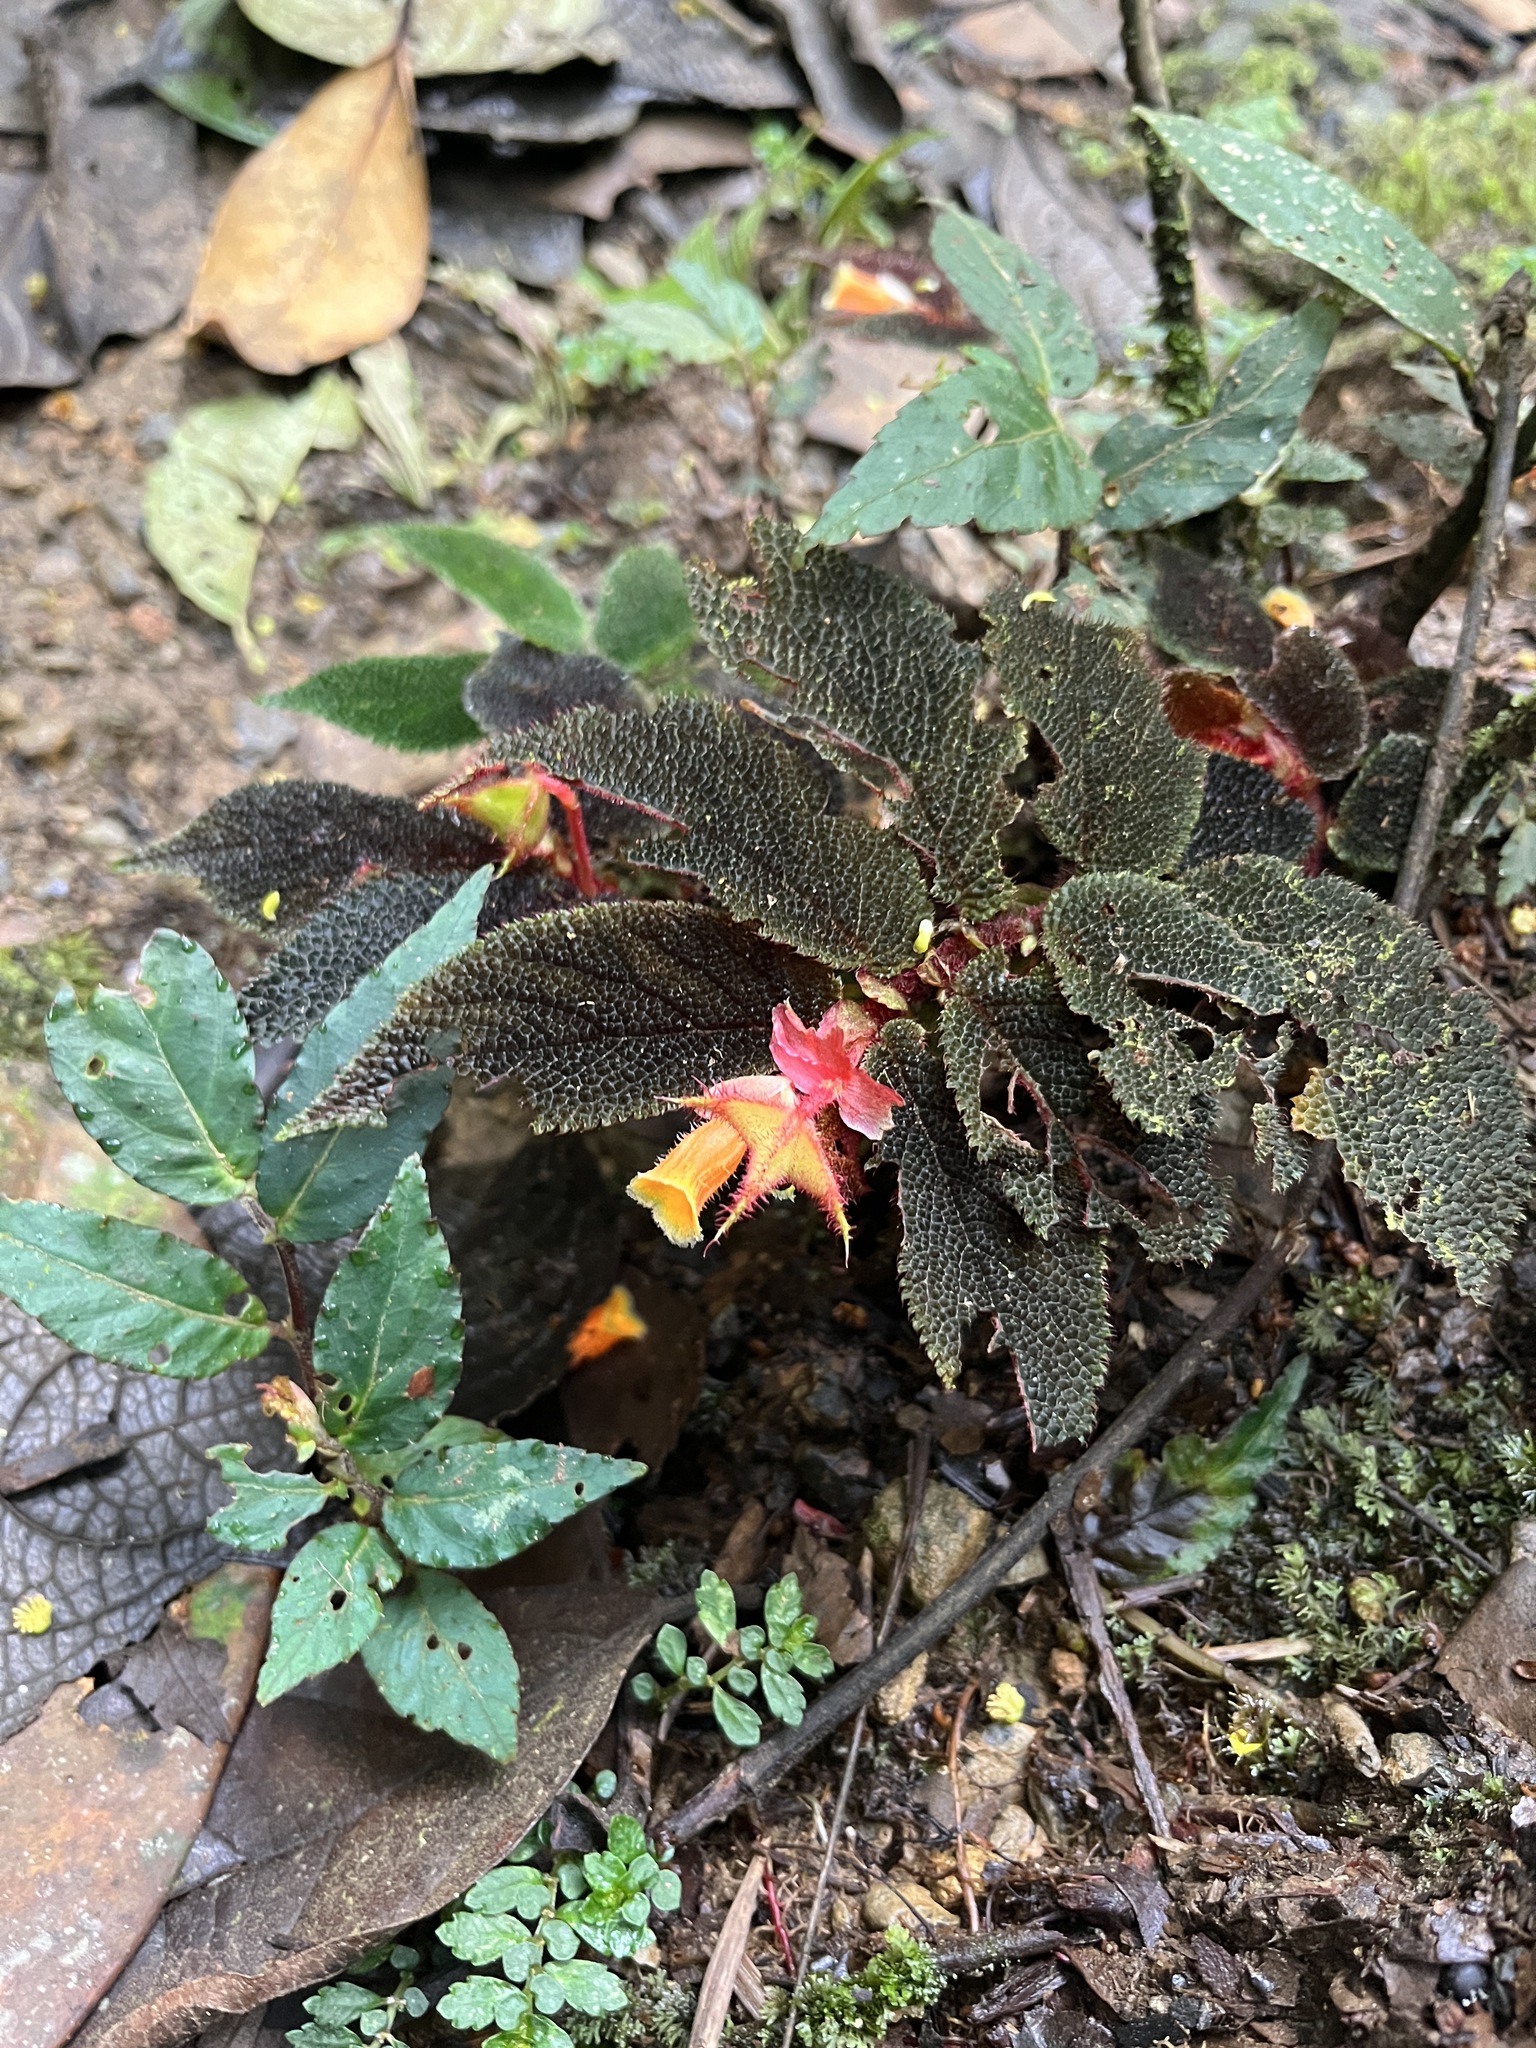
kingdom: Plantae
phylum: Tracheophyta
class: Magnoliopsida
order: Cucurbitales
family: Begoniaceae
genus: Begonia
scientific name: Begonia lehmannii
